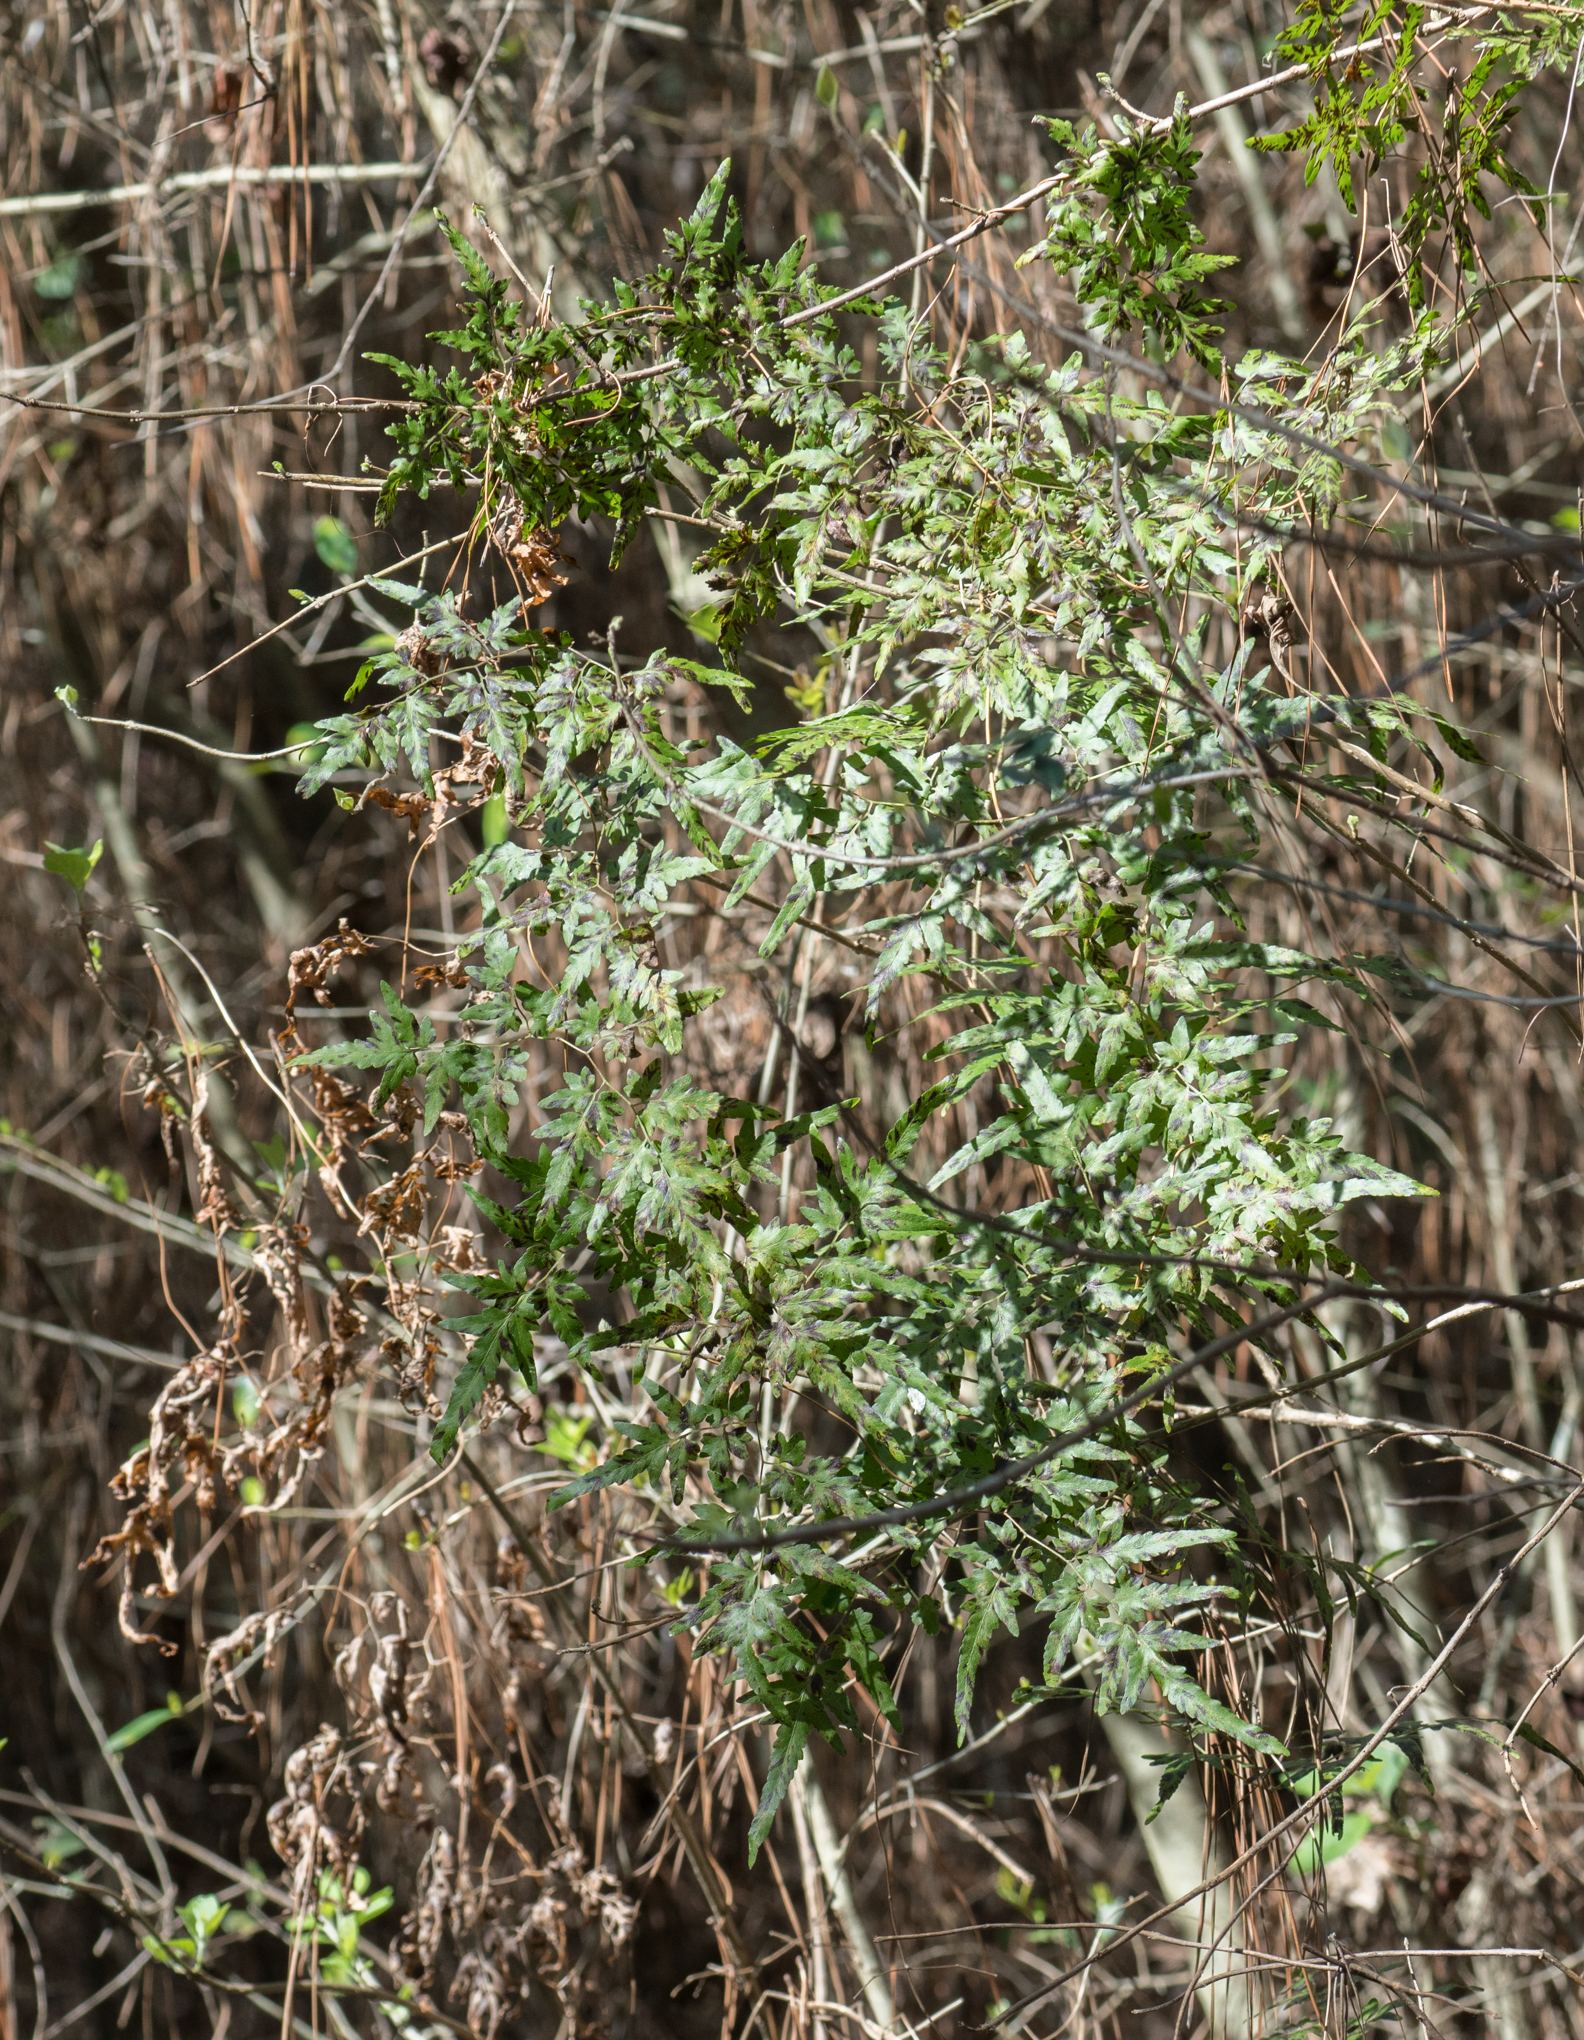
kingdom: Plantae
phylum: Tracheophyta
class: Polypodiopsida
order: Schizaeales
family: Lygodiaceae
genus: Lygodium
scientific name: Lygodium japonicum
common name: Japanese climbing fern
